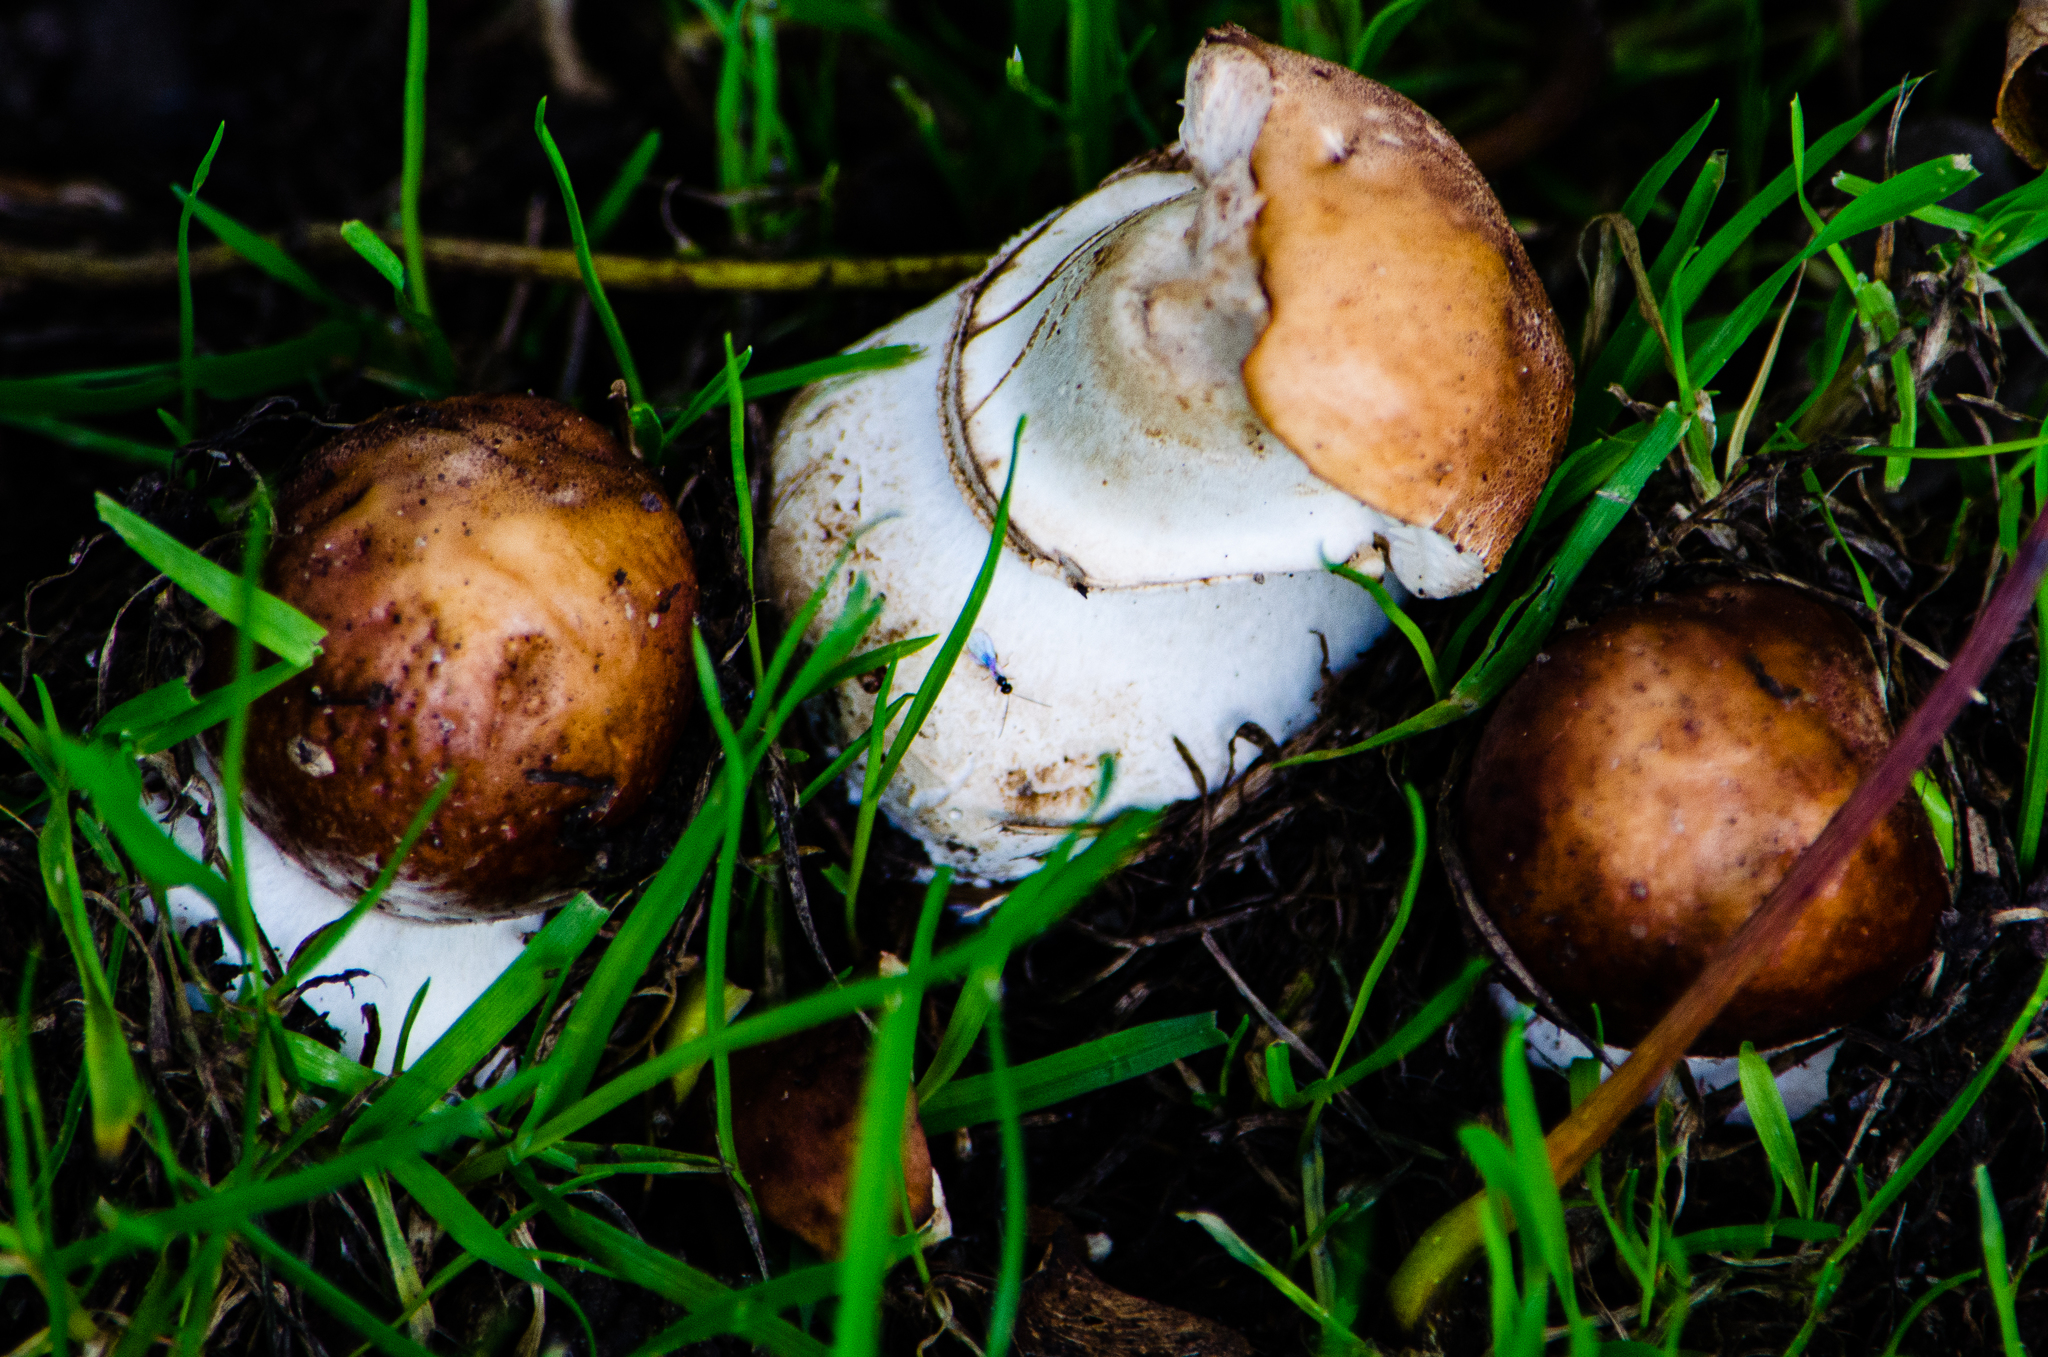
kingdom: Fungi
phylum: Basidiomycota
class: Agaricomycetes
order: Agaricales
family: Agaricaceae
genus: Chlorophyllum
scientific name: Chlorophyllum rhacodes
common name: Shaggy parasol
